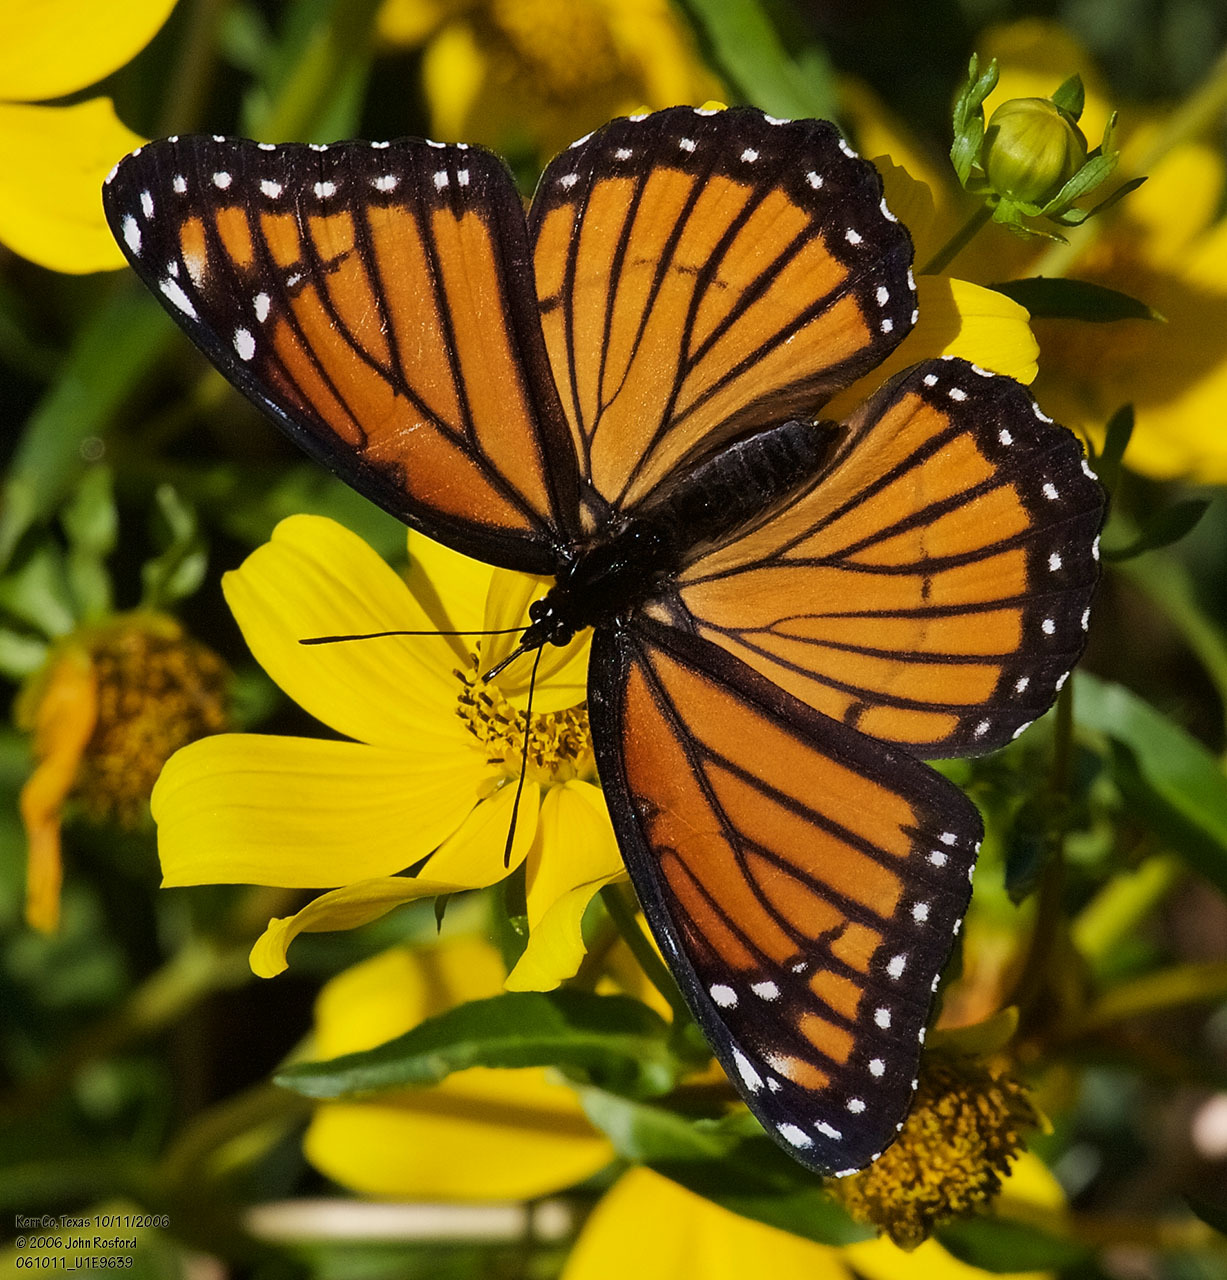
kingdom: Animalia
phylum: Arthropoda
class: Insecta
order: Lepidoptera
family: Nymphalidae
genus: Limenitis
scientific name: Limenitis archippus
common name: Viceroy
